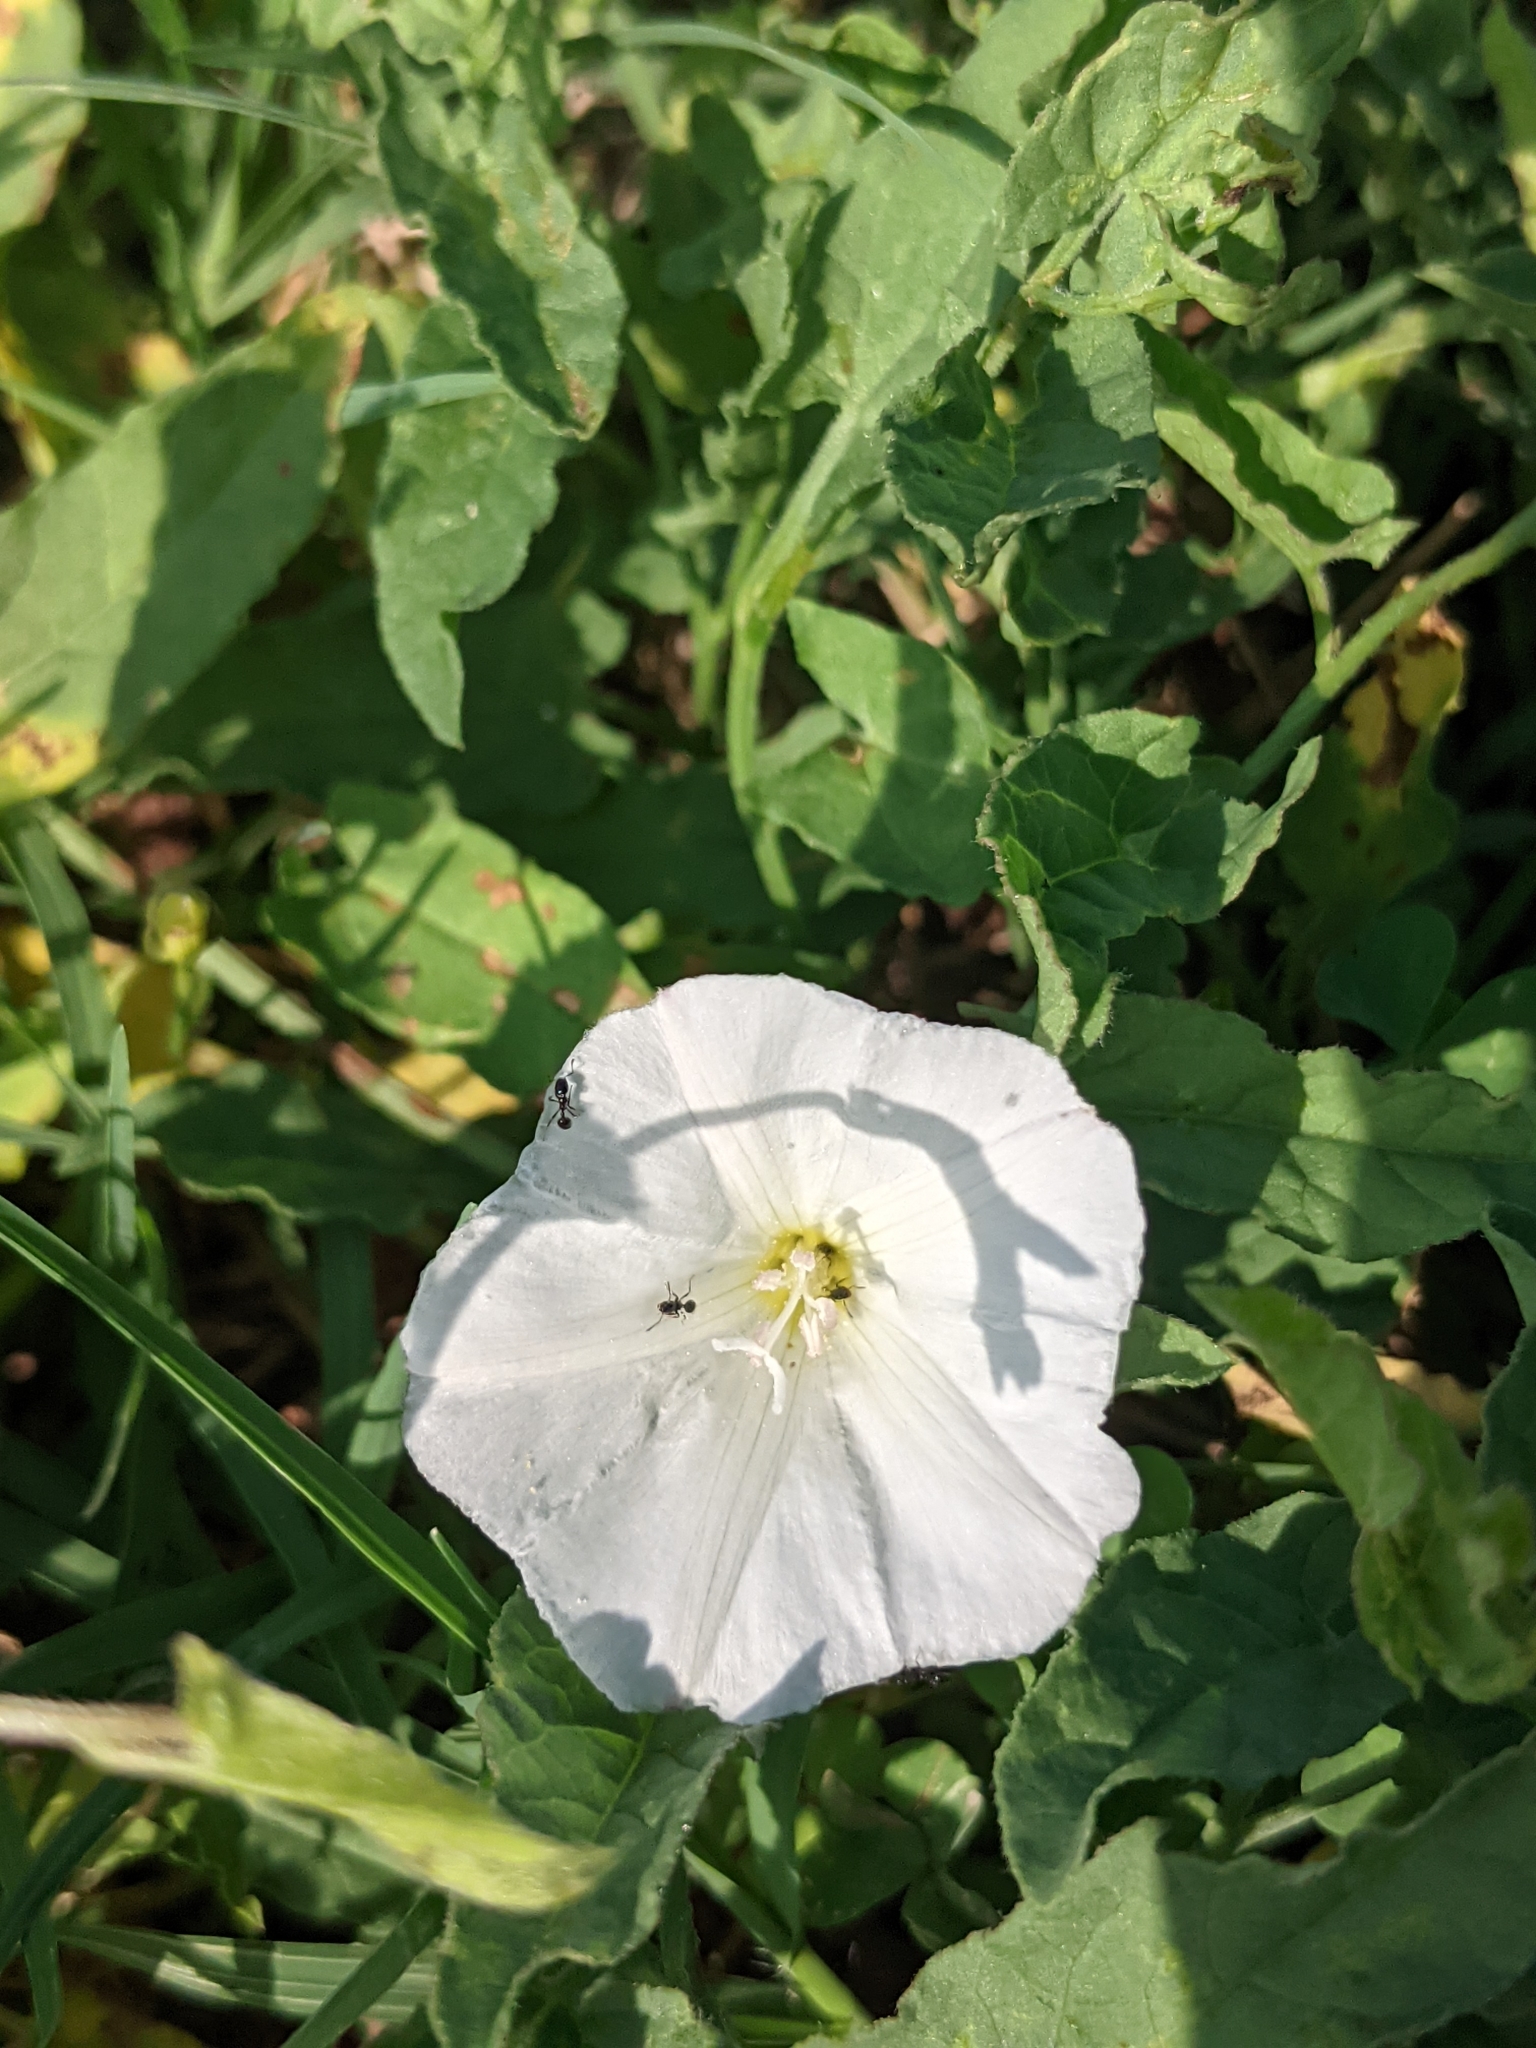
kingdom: Plantae
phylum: Tracheophyta
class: Magnoliopsida
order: Solanales
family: Convolvulaceae
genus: Convolvulus
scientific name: Convolvulus arvensis
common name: Field bindweed
